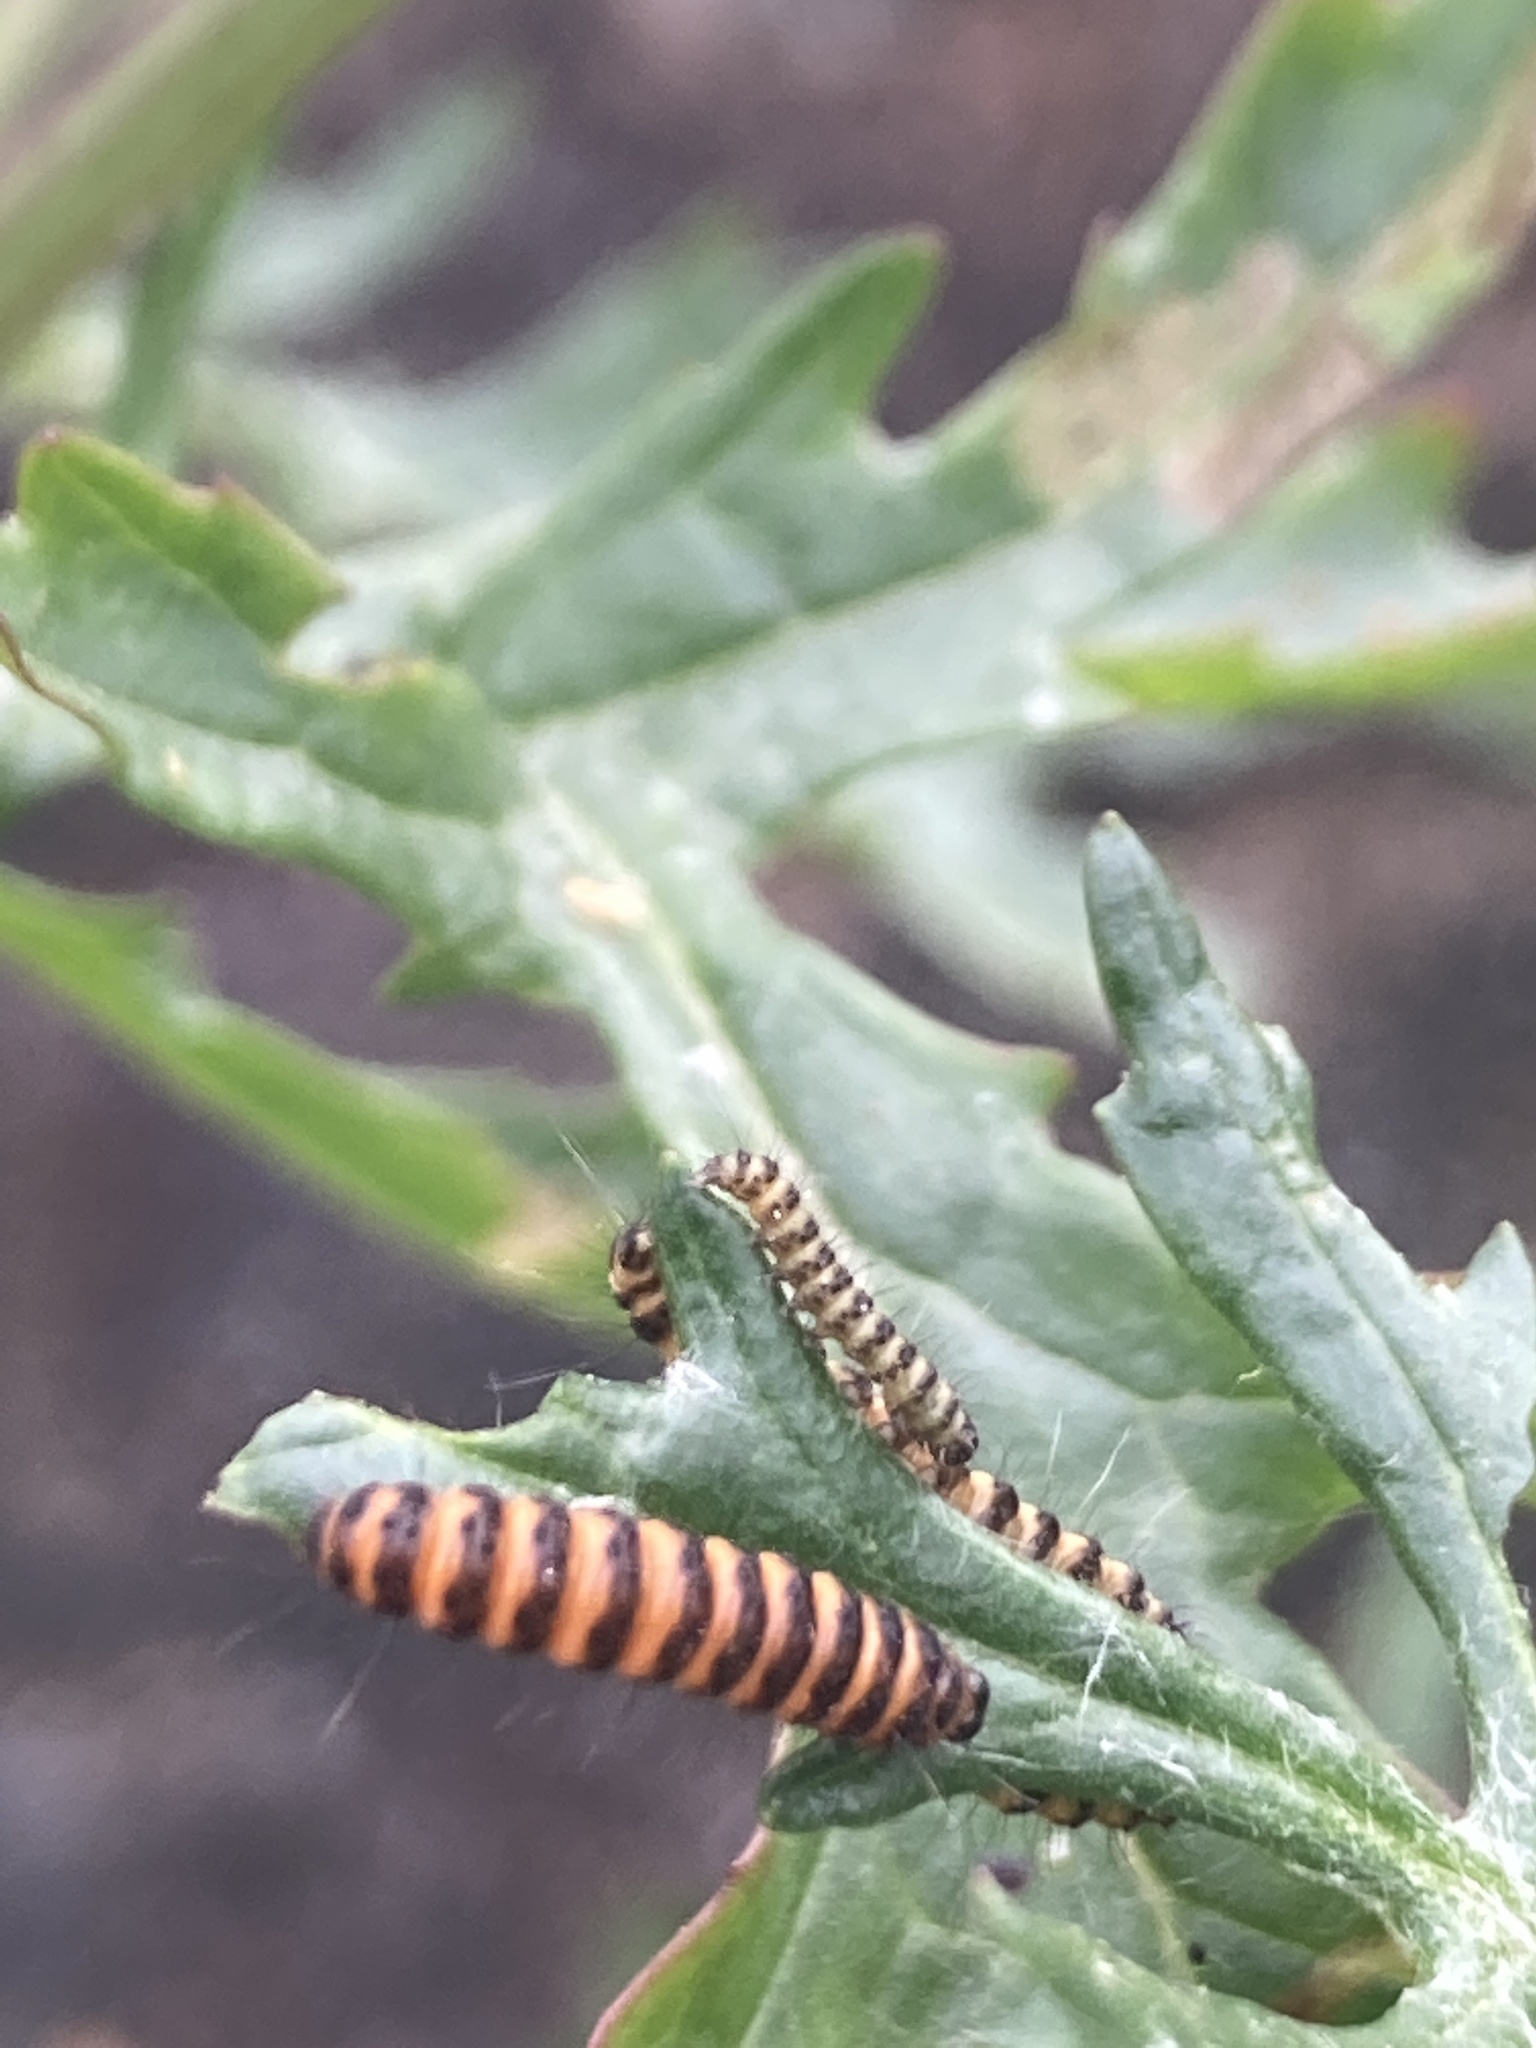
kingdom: Animalia
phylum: Arthropoda
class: Insecta
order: Lepidoptera
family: Erebidae
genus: Tyria
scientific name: Tyria jacobaeae
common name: Cinnabar
